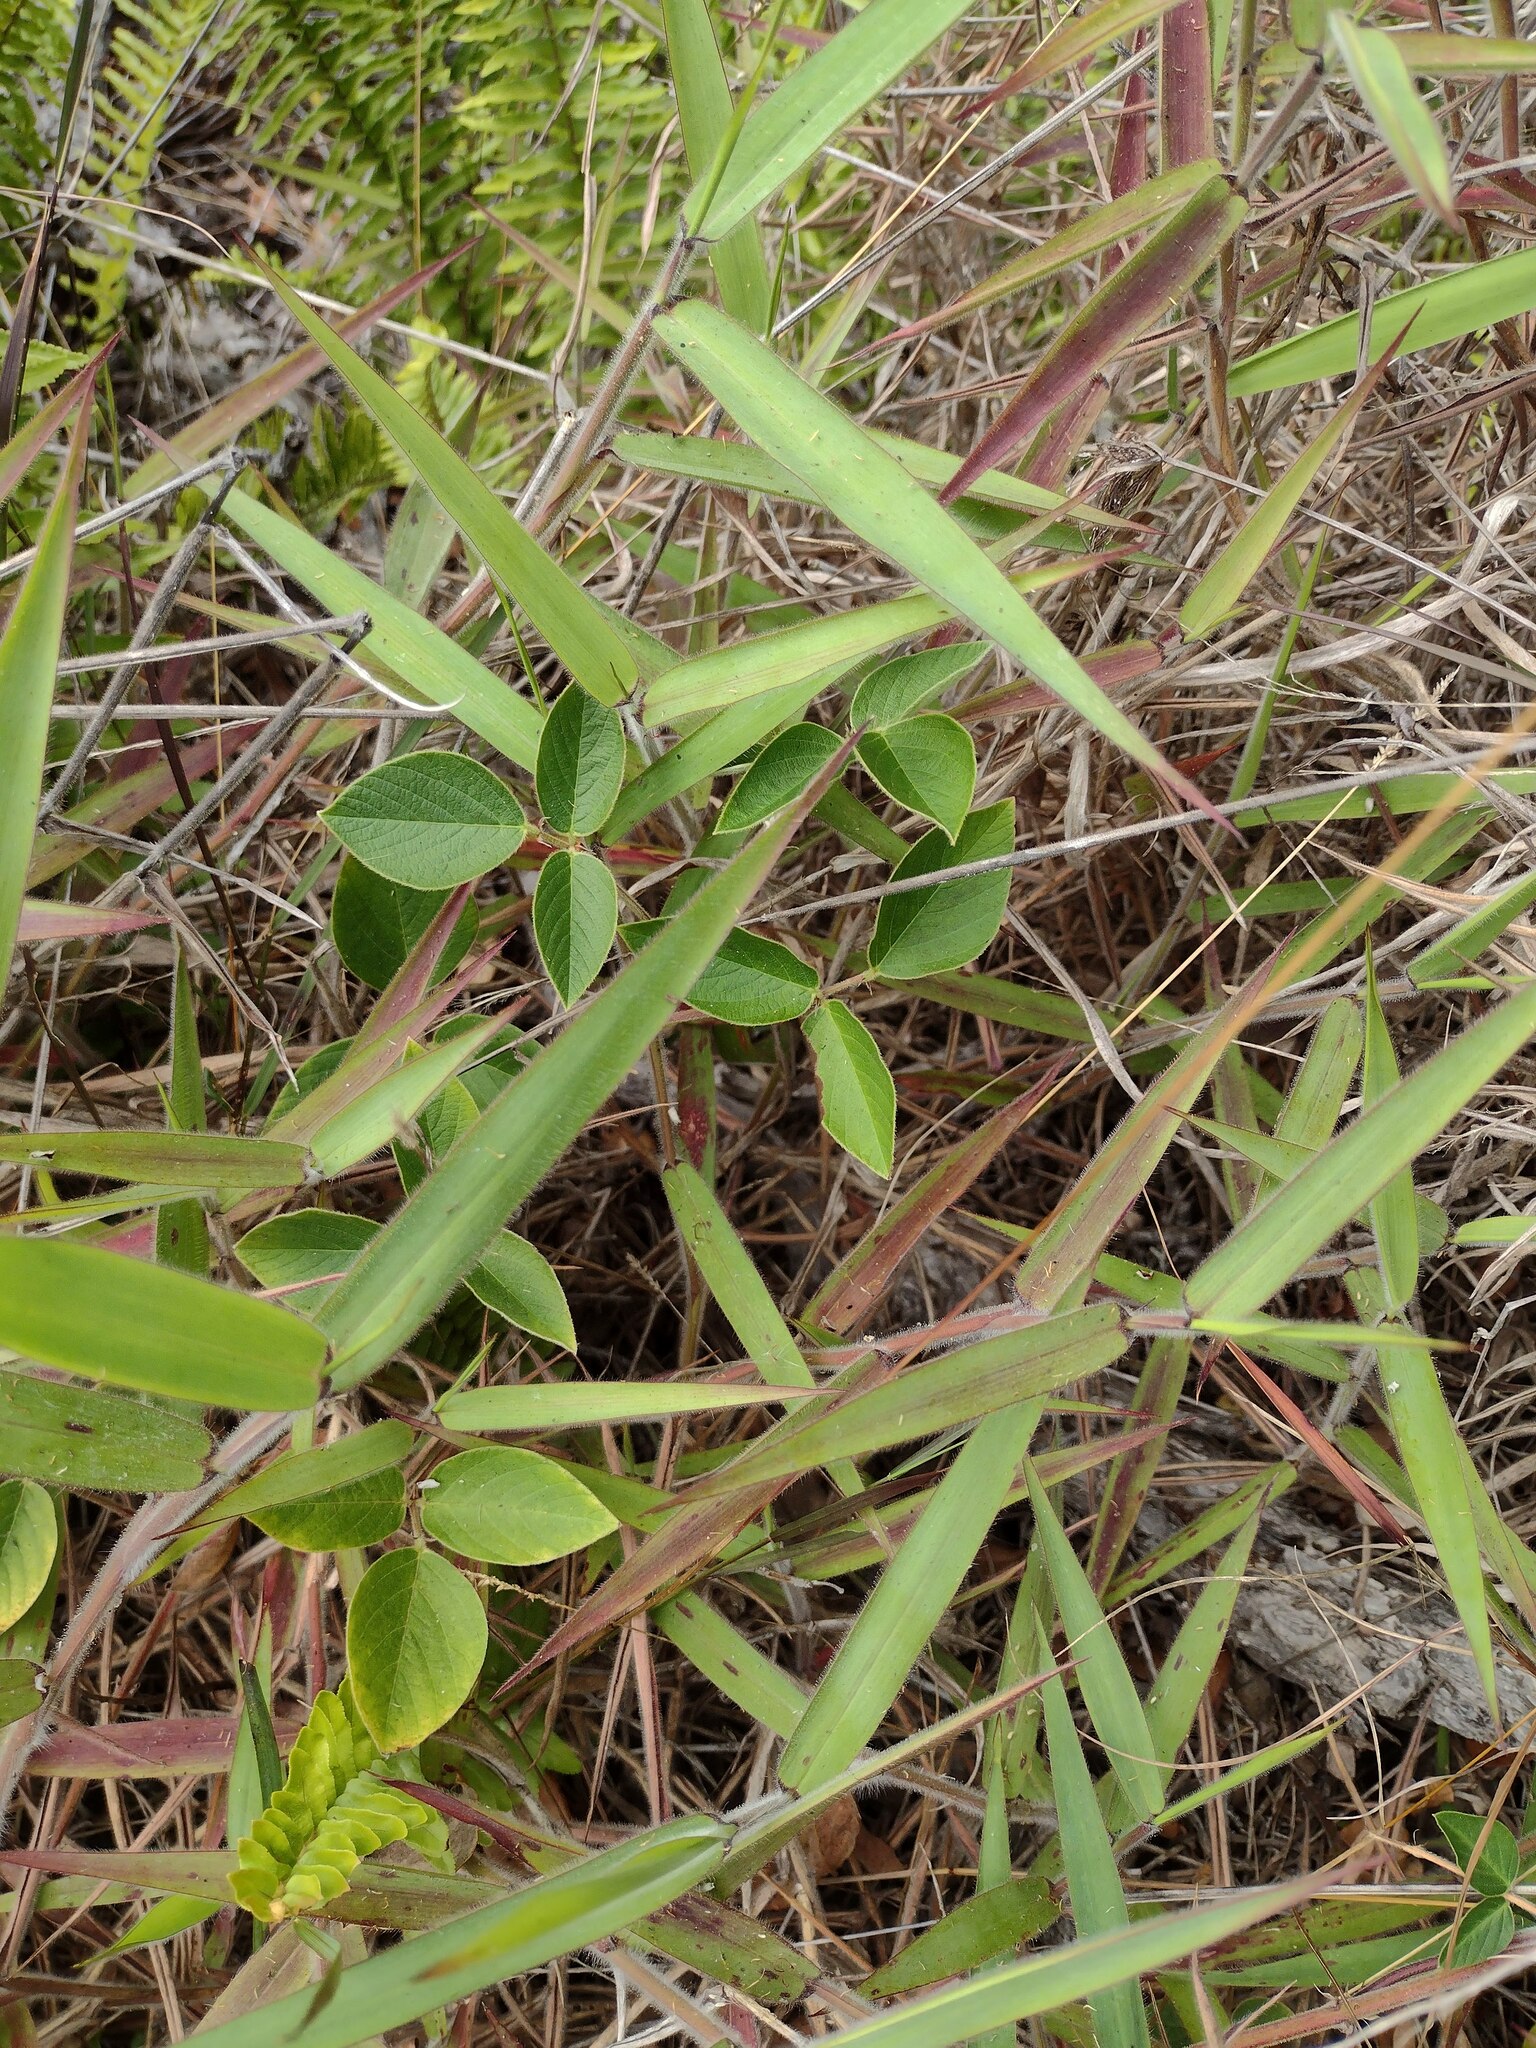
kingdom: Plantae
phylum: Tracheophyta
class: Liliopsida
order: Poales
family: Poaceae
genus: Melinis
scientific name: Melinis minutiflora
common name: Molassesgrass
